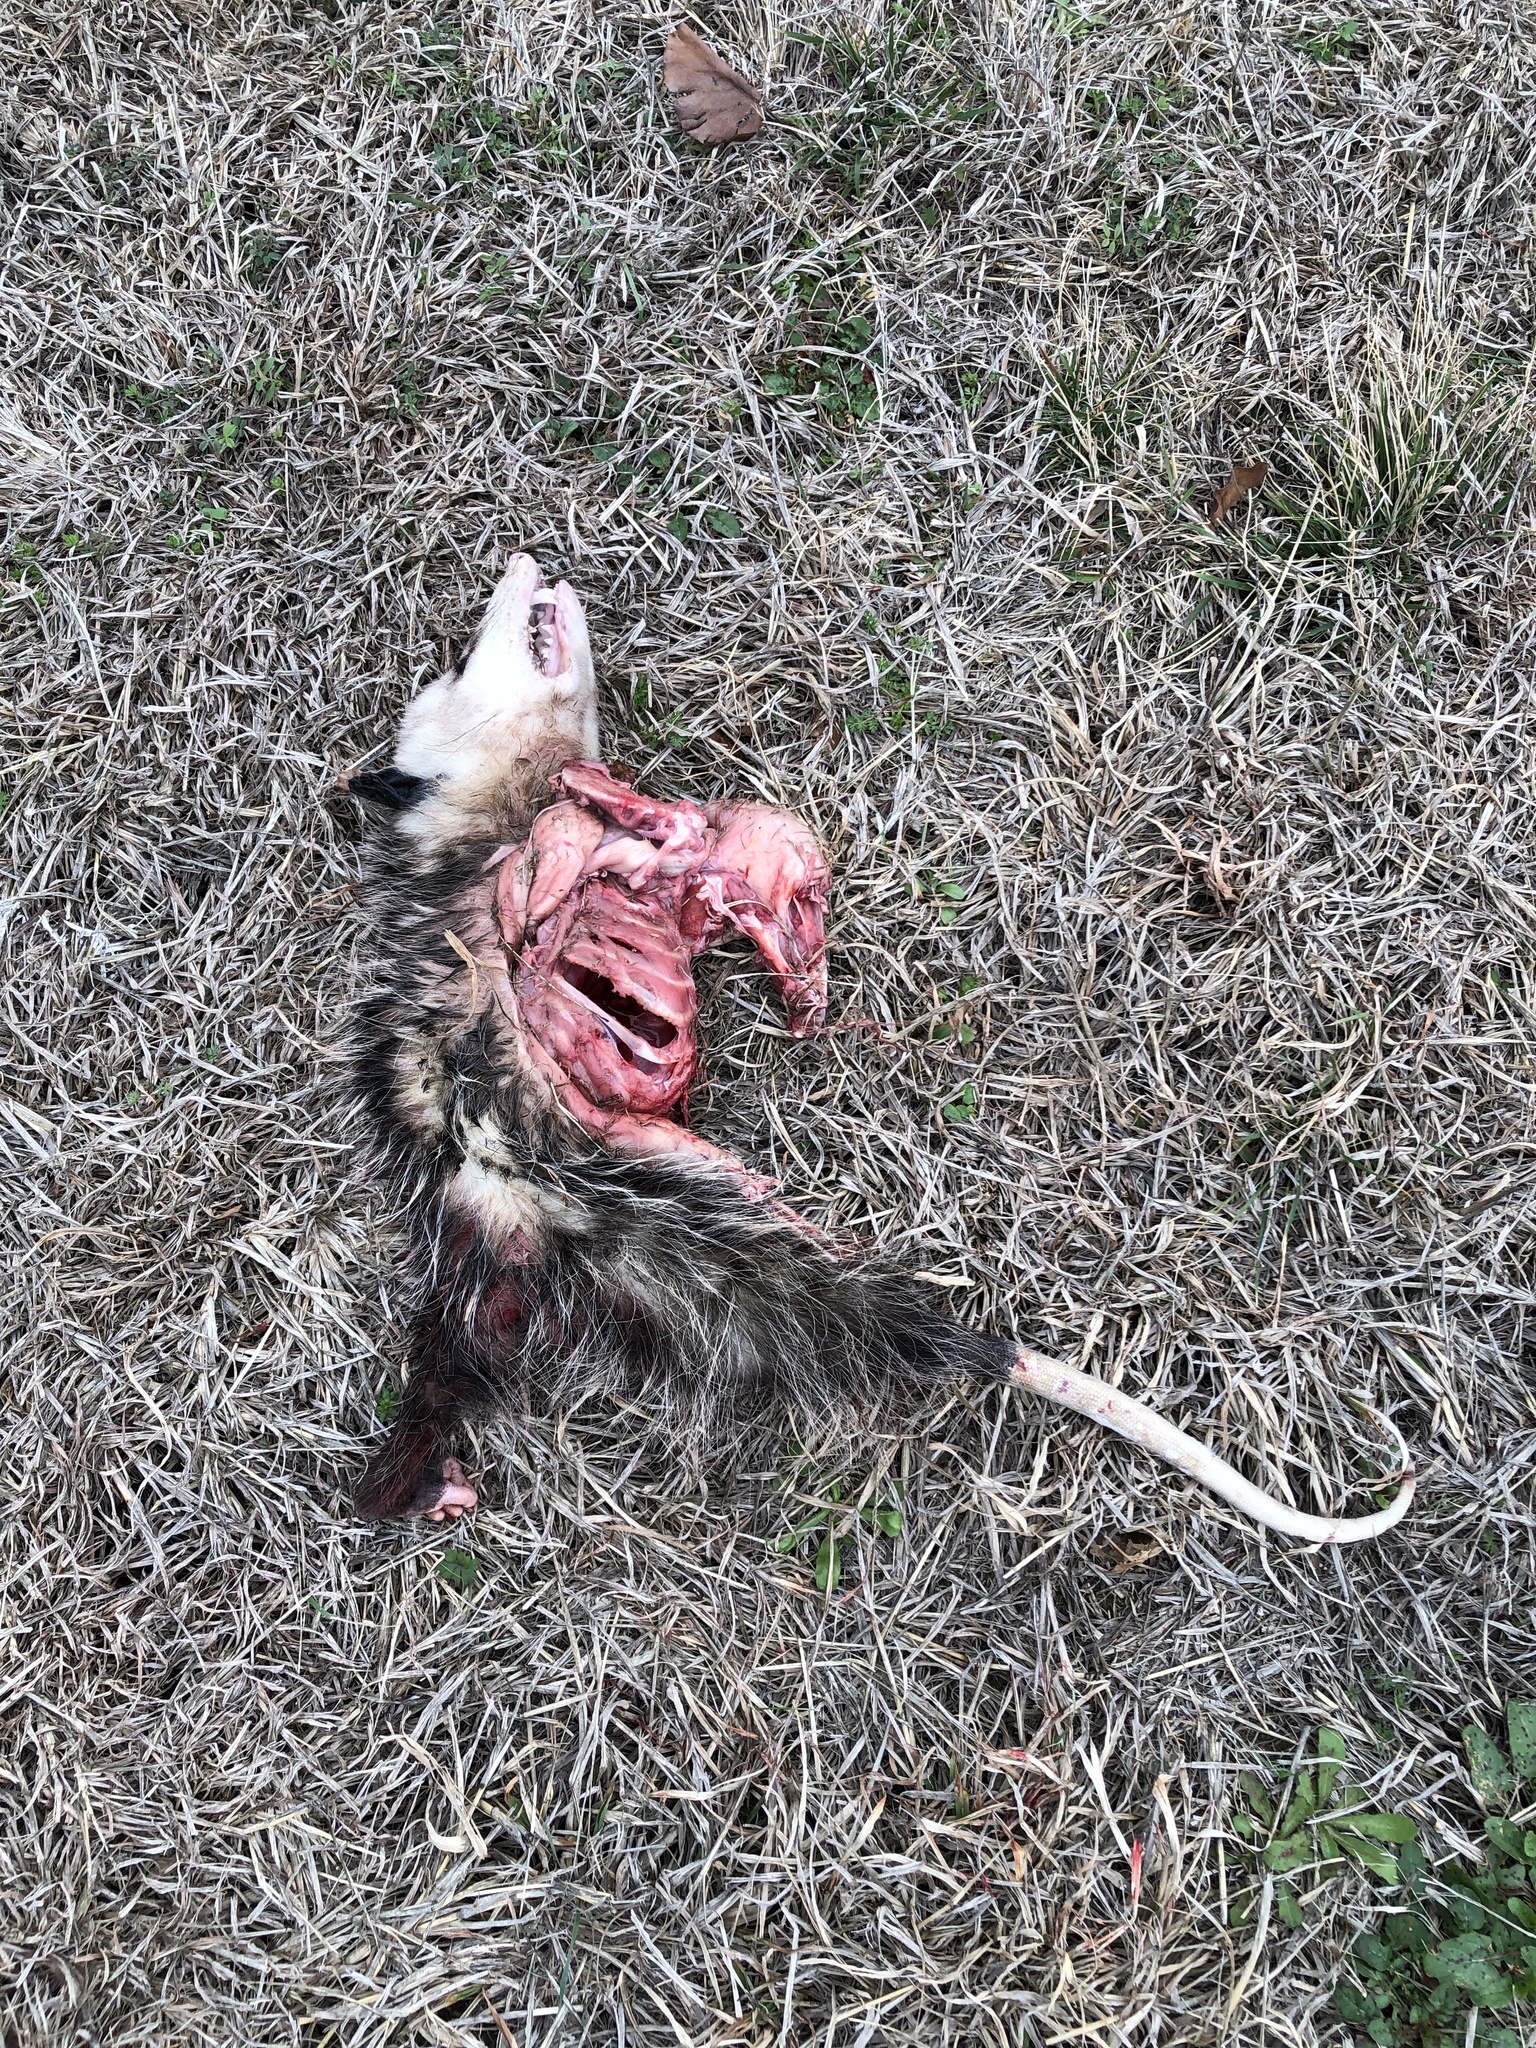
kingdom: Animalia
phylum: Chordata
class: Mammalia
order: Didelphimorphia
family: Didelphidae
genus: Didelphis
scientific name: Didelphis virginiana
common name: Virginia opossum
